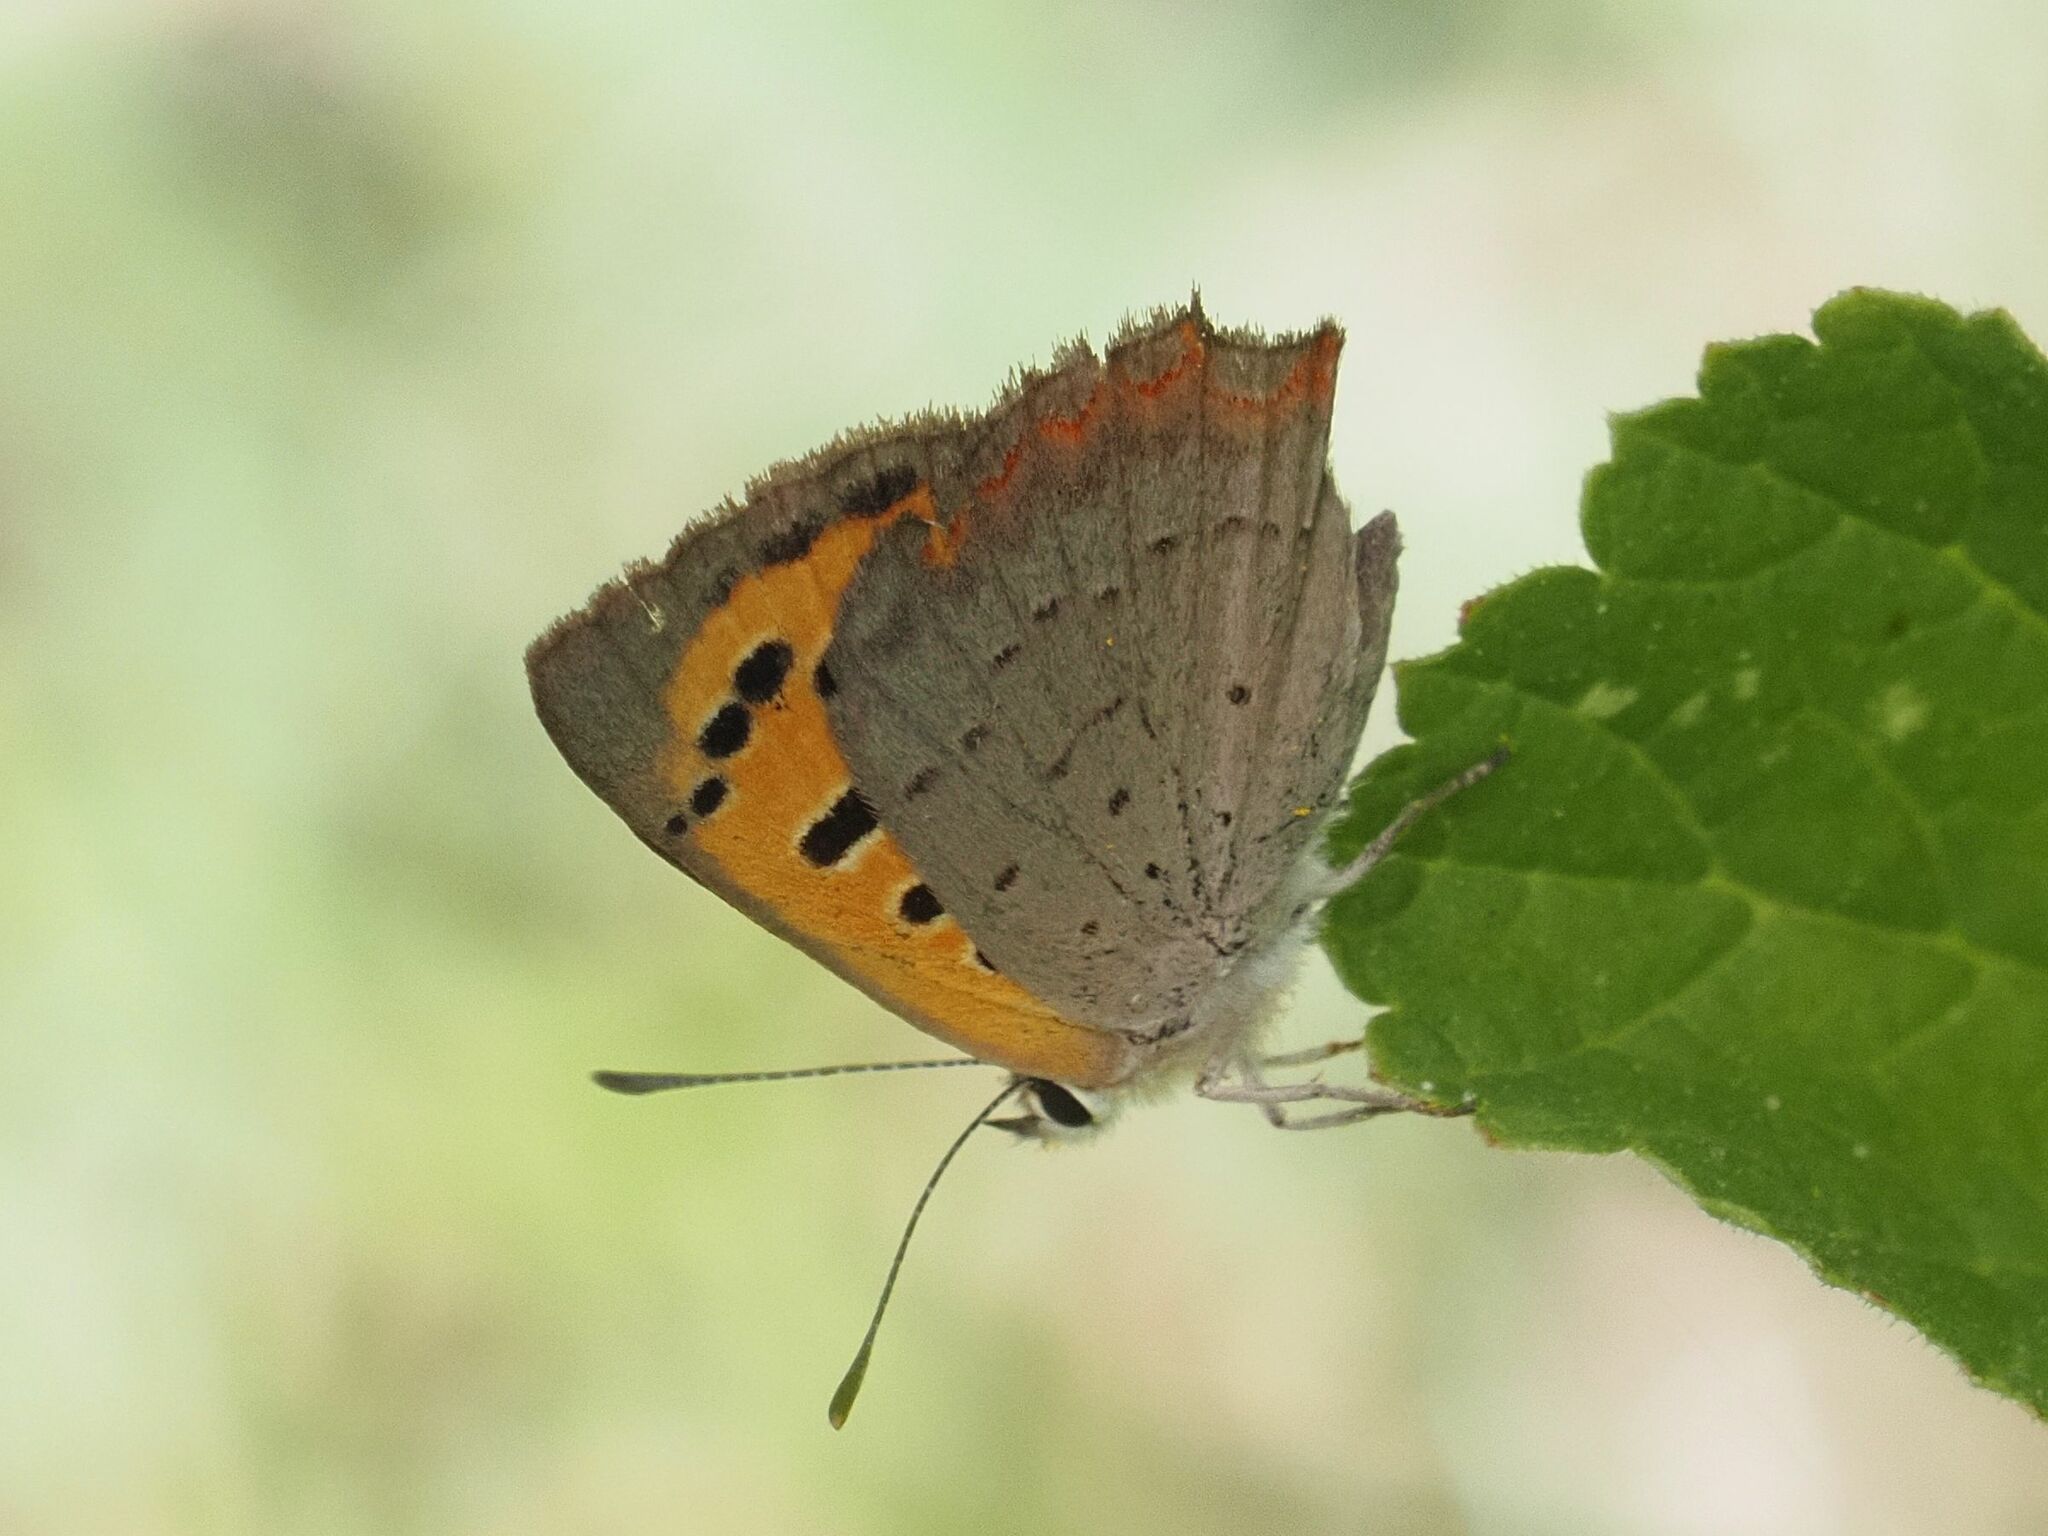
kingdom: Animalia
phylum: Arthropoda
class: Insecta
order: Lepidoptera
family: Lycaenidae
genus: Lycaena
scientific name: Lycaena phlaeas
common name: Small copper
